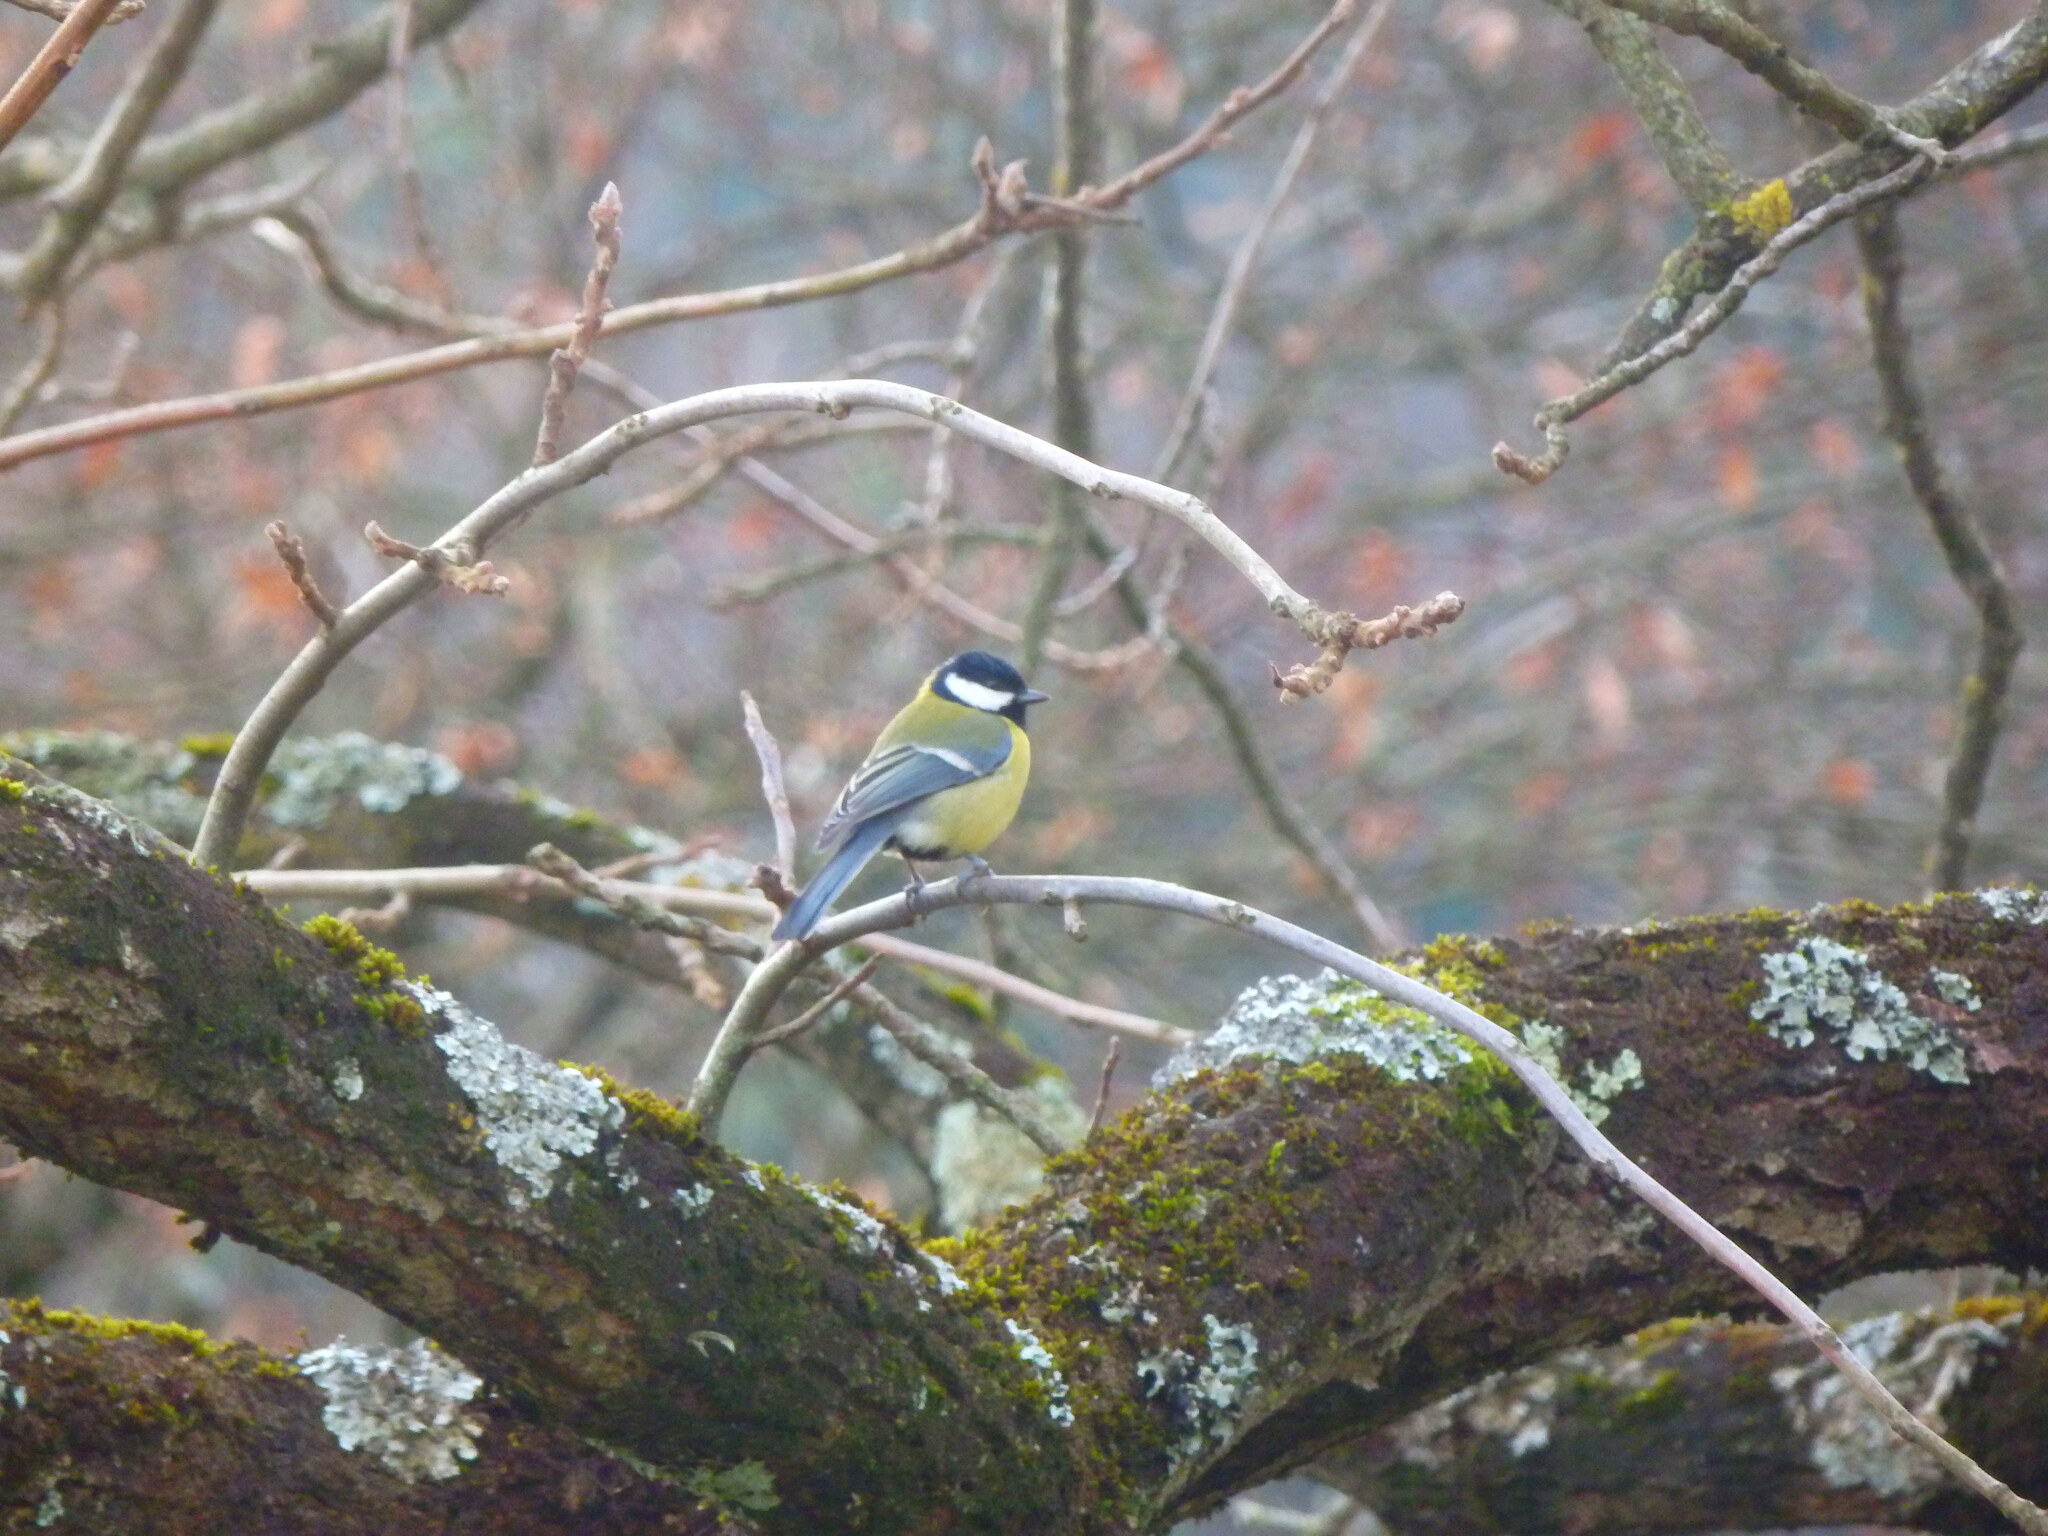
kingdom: Animalia
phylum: Chordata
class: Aves
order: Passeriformes
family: Paridae
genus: Parus
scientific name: Parus major
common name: Great tit
